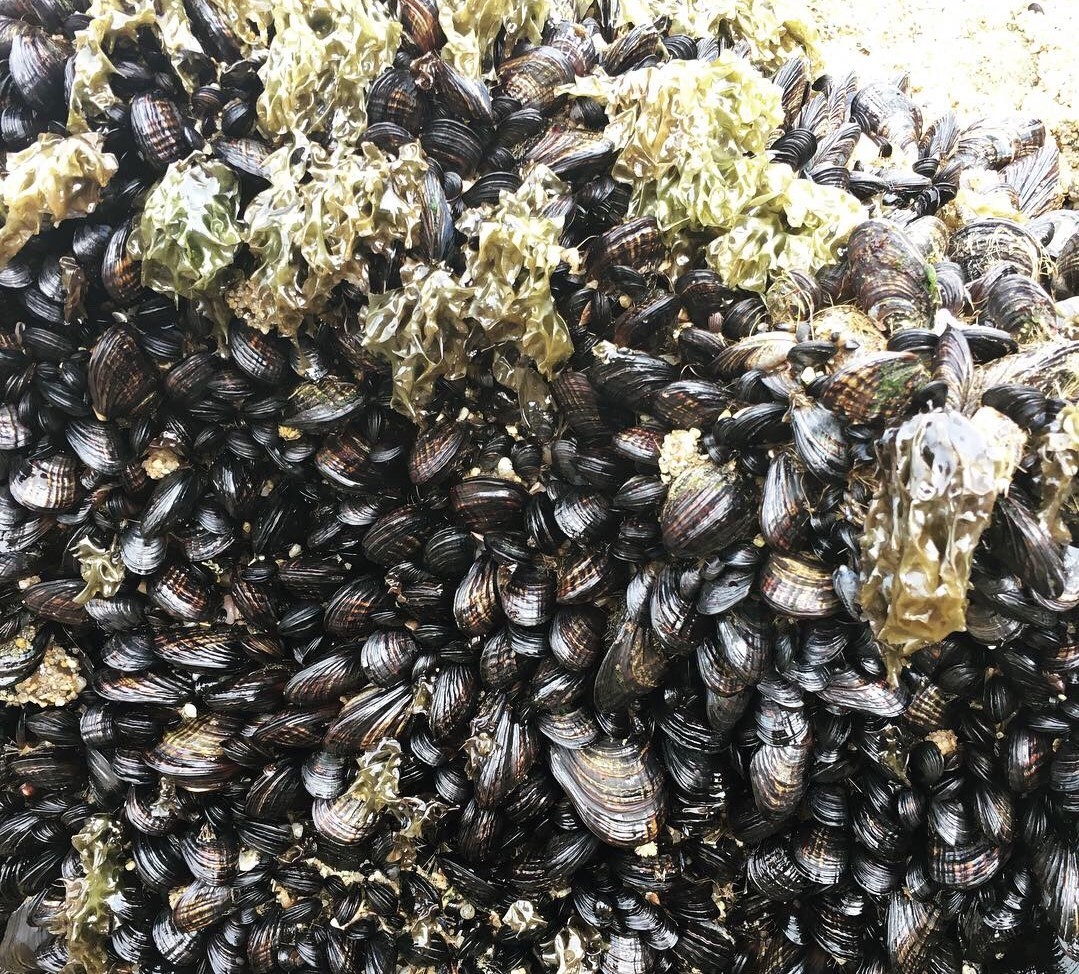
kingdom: Animalia
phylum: Mollusca
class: Bivalvia
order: Mytilida
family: Mytilidae
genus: Mytilus
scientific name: Mytilus californianus
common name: California mussel
